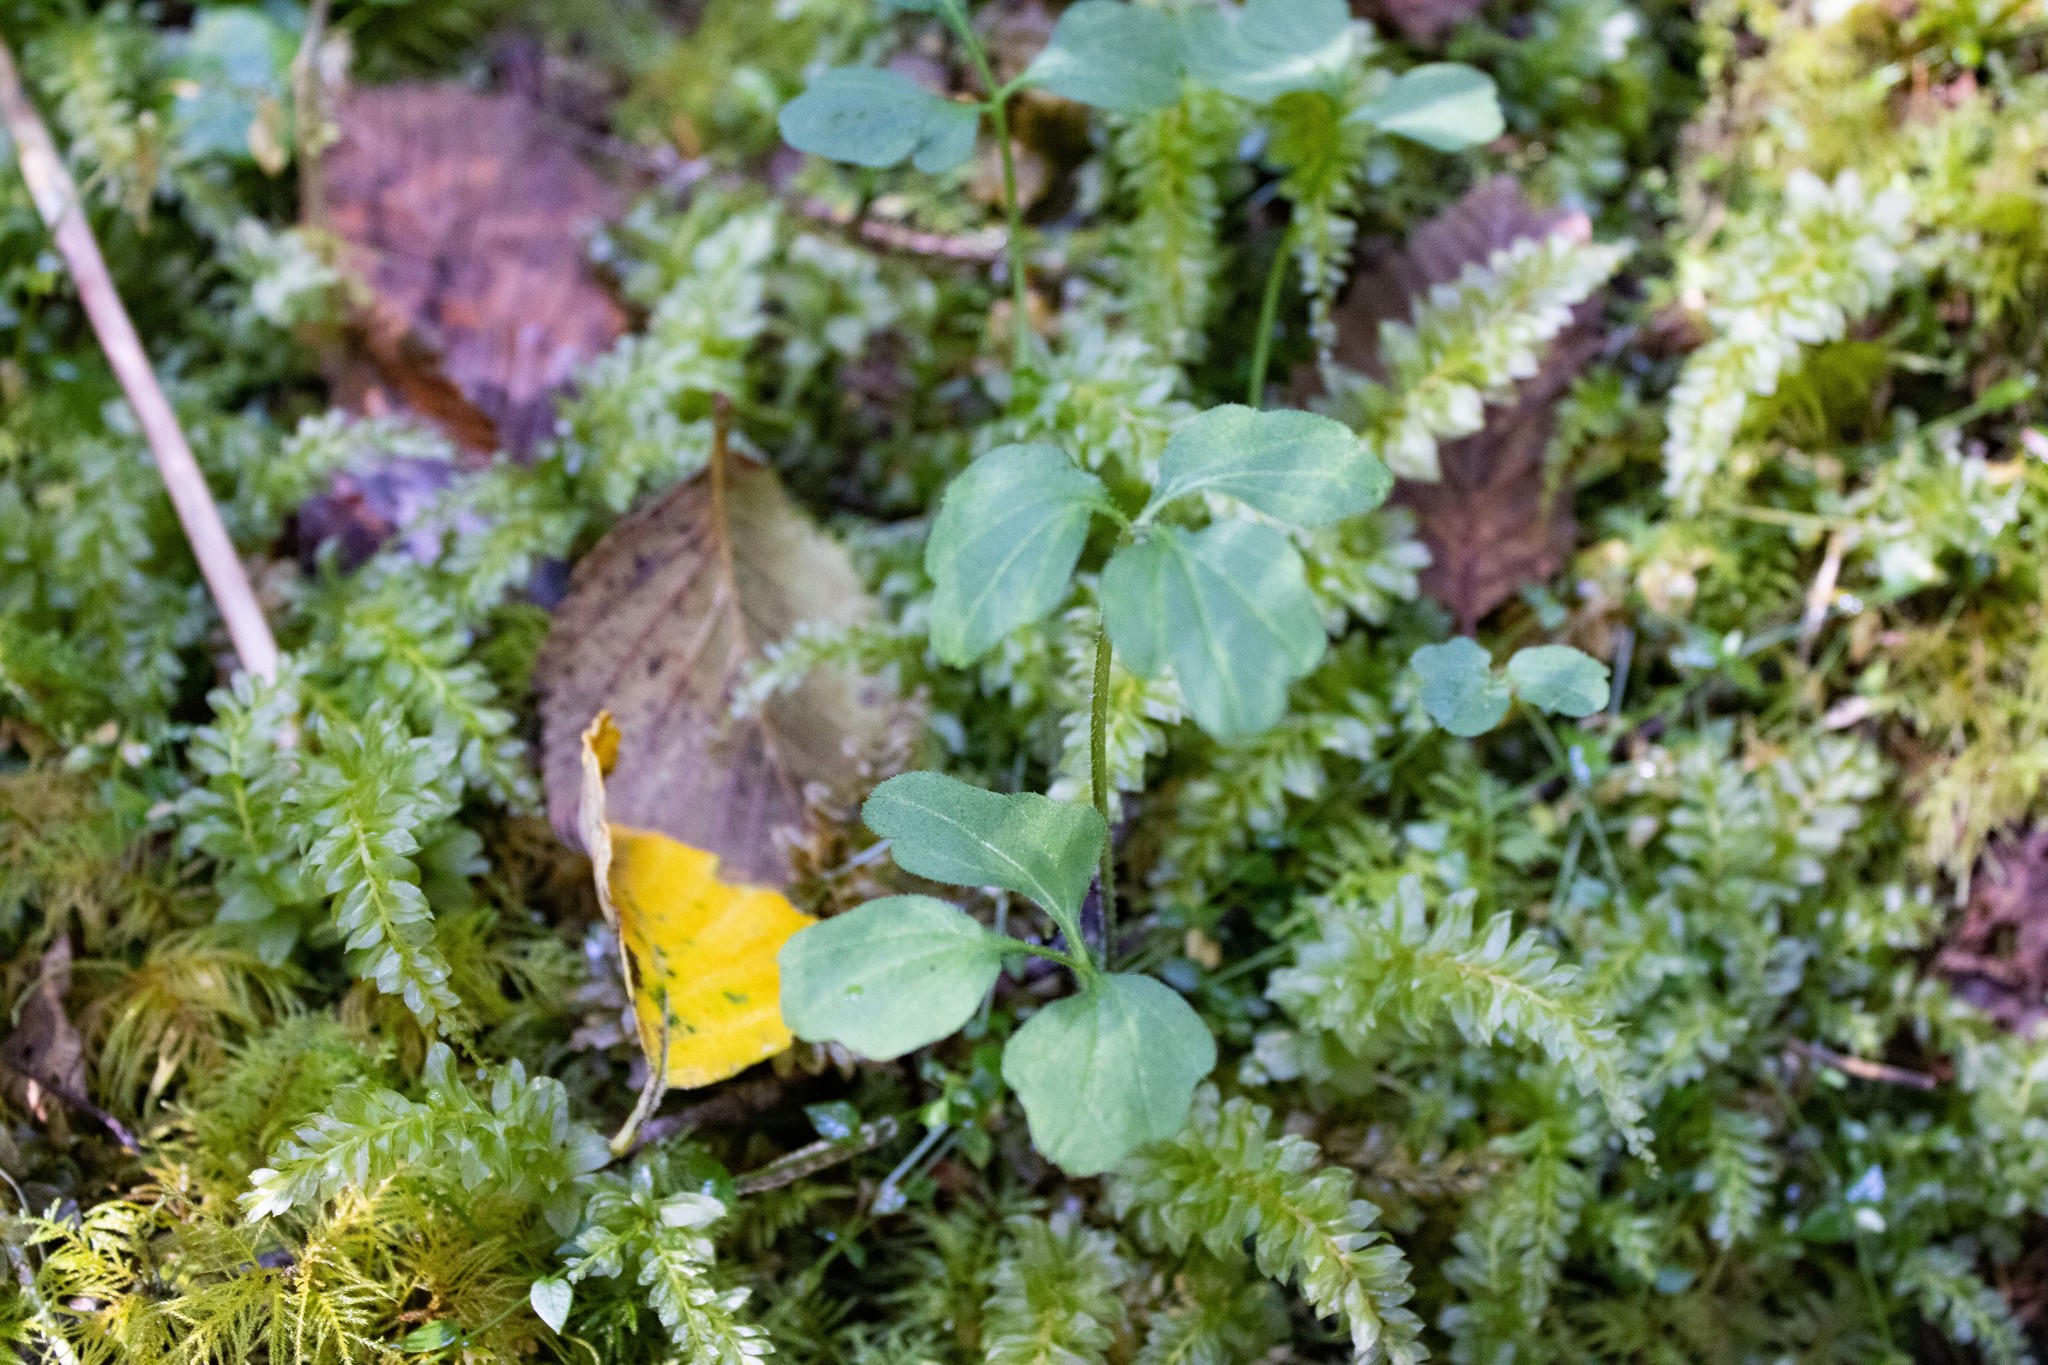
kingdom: Plantae
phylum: Tracheophyta
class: Magnoliopsida
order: Brassicales
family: Brassicaceae
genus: Cardamine
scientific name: Cardamine angulata
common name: Angled bittercress
